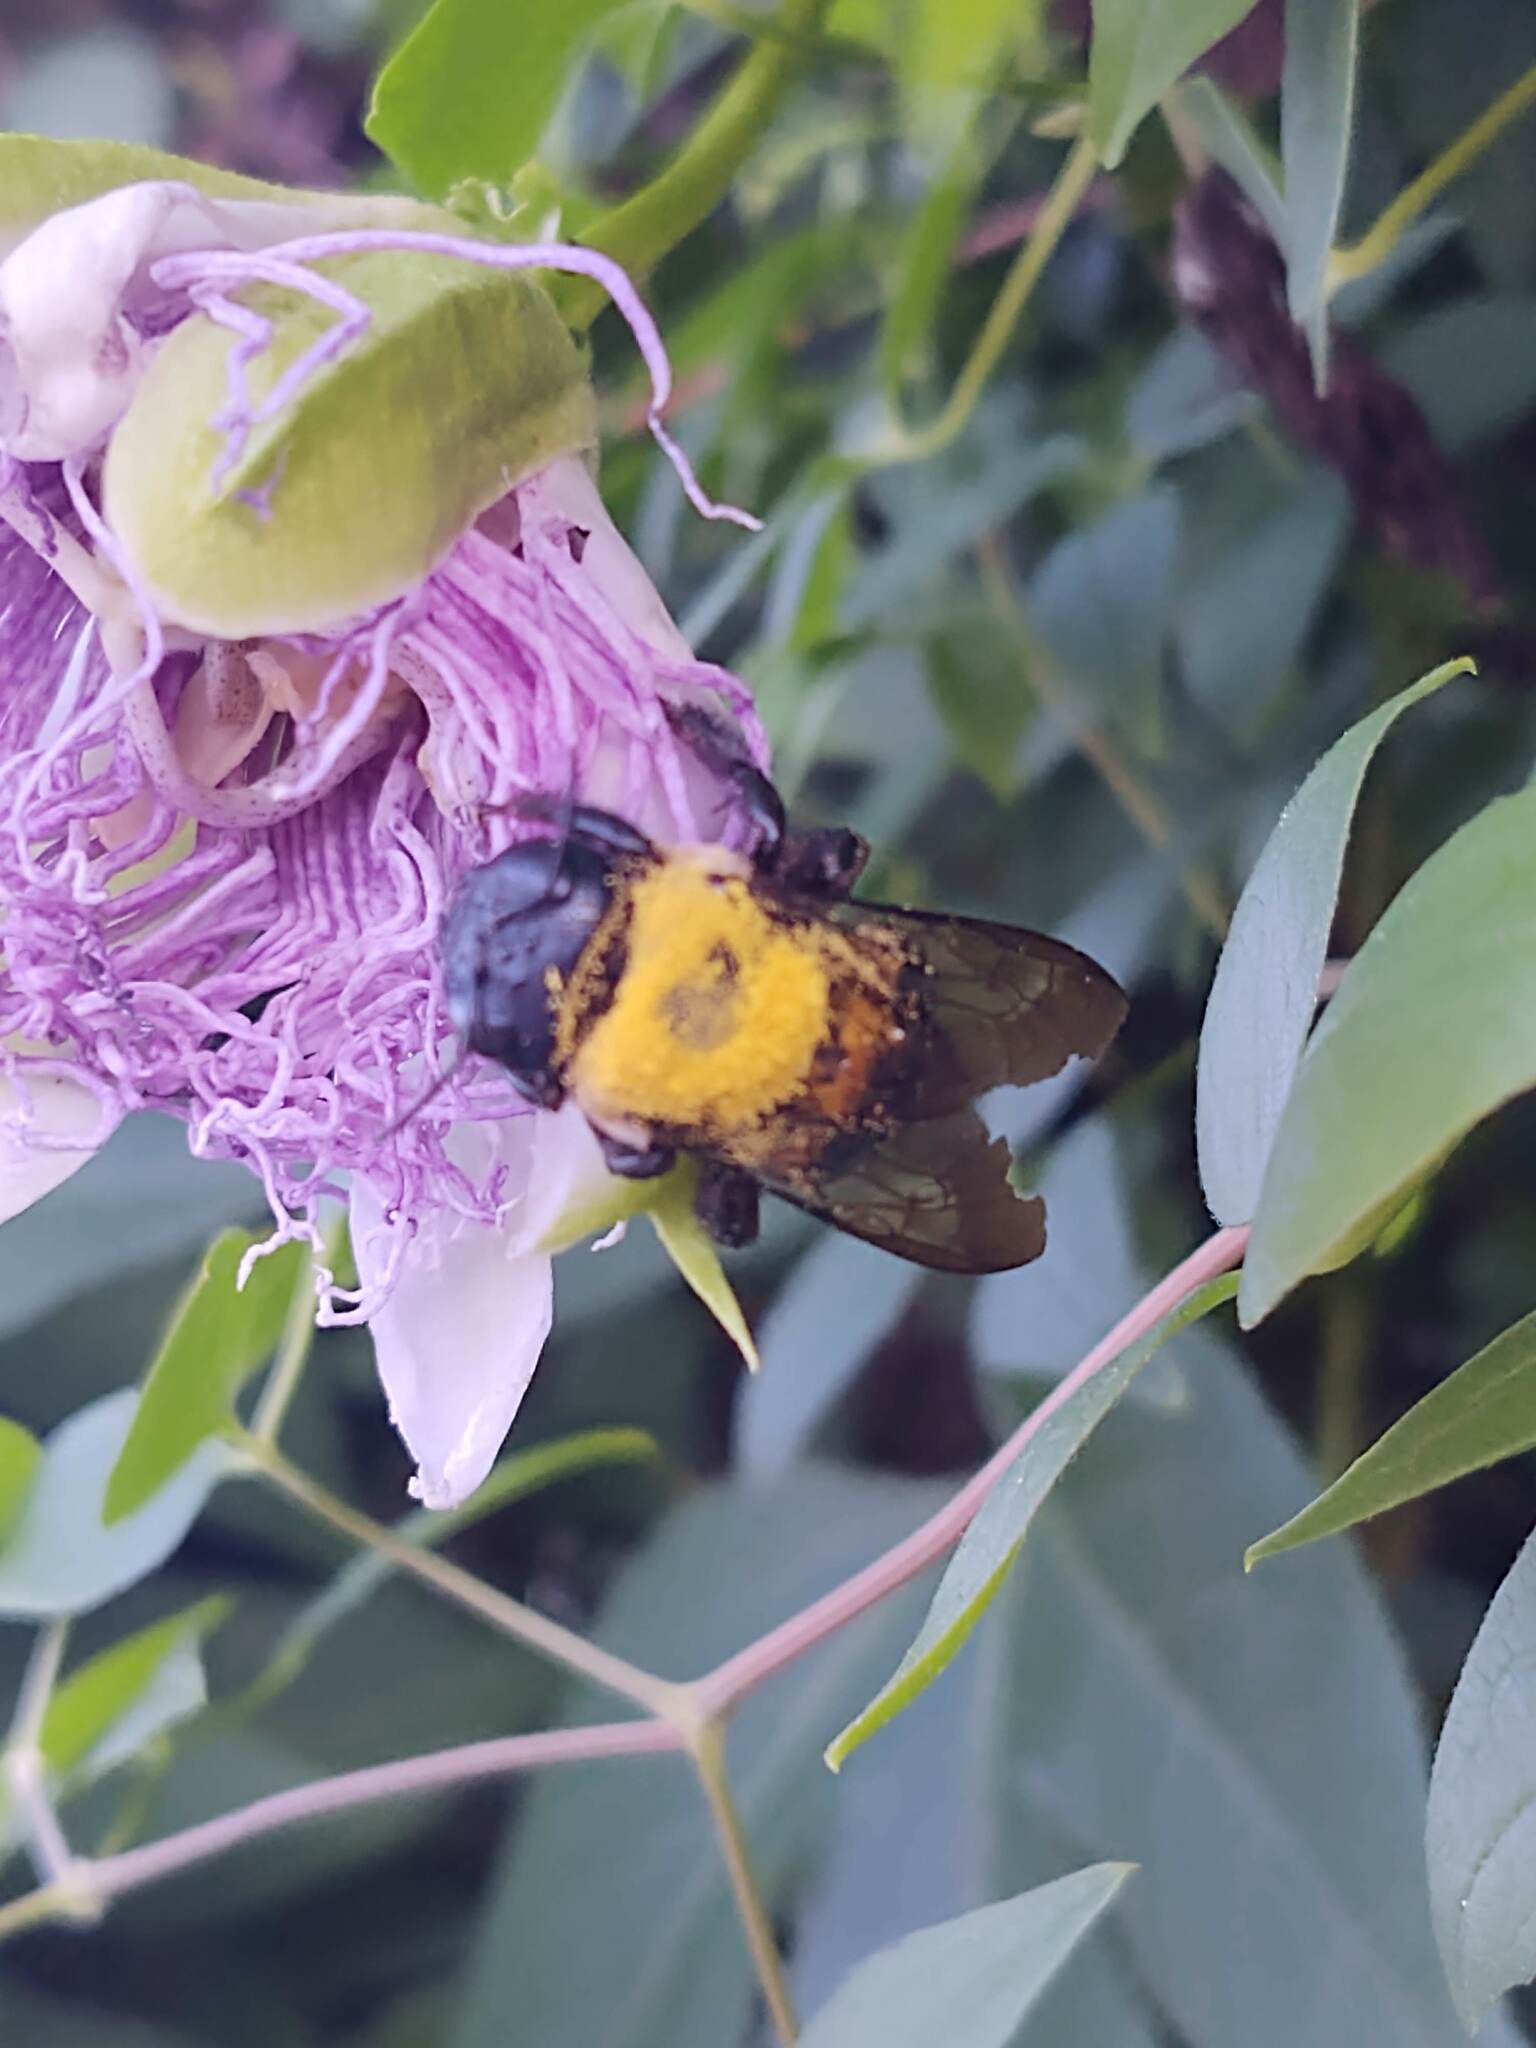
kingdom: Animalia
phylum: Arthropoda
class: Insecta
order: Hymenoptera
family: Apidae
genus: Xylocopa
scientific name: Xylocopa virginica
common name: Carpenter bee
